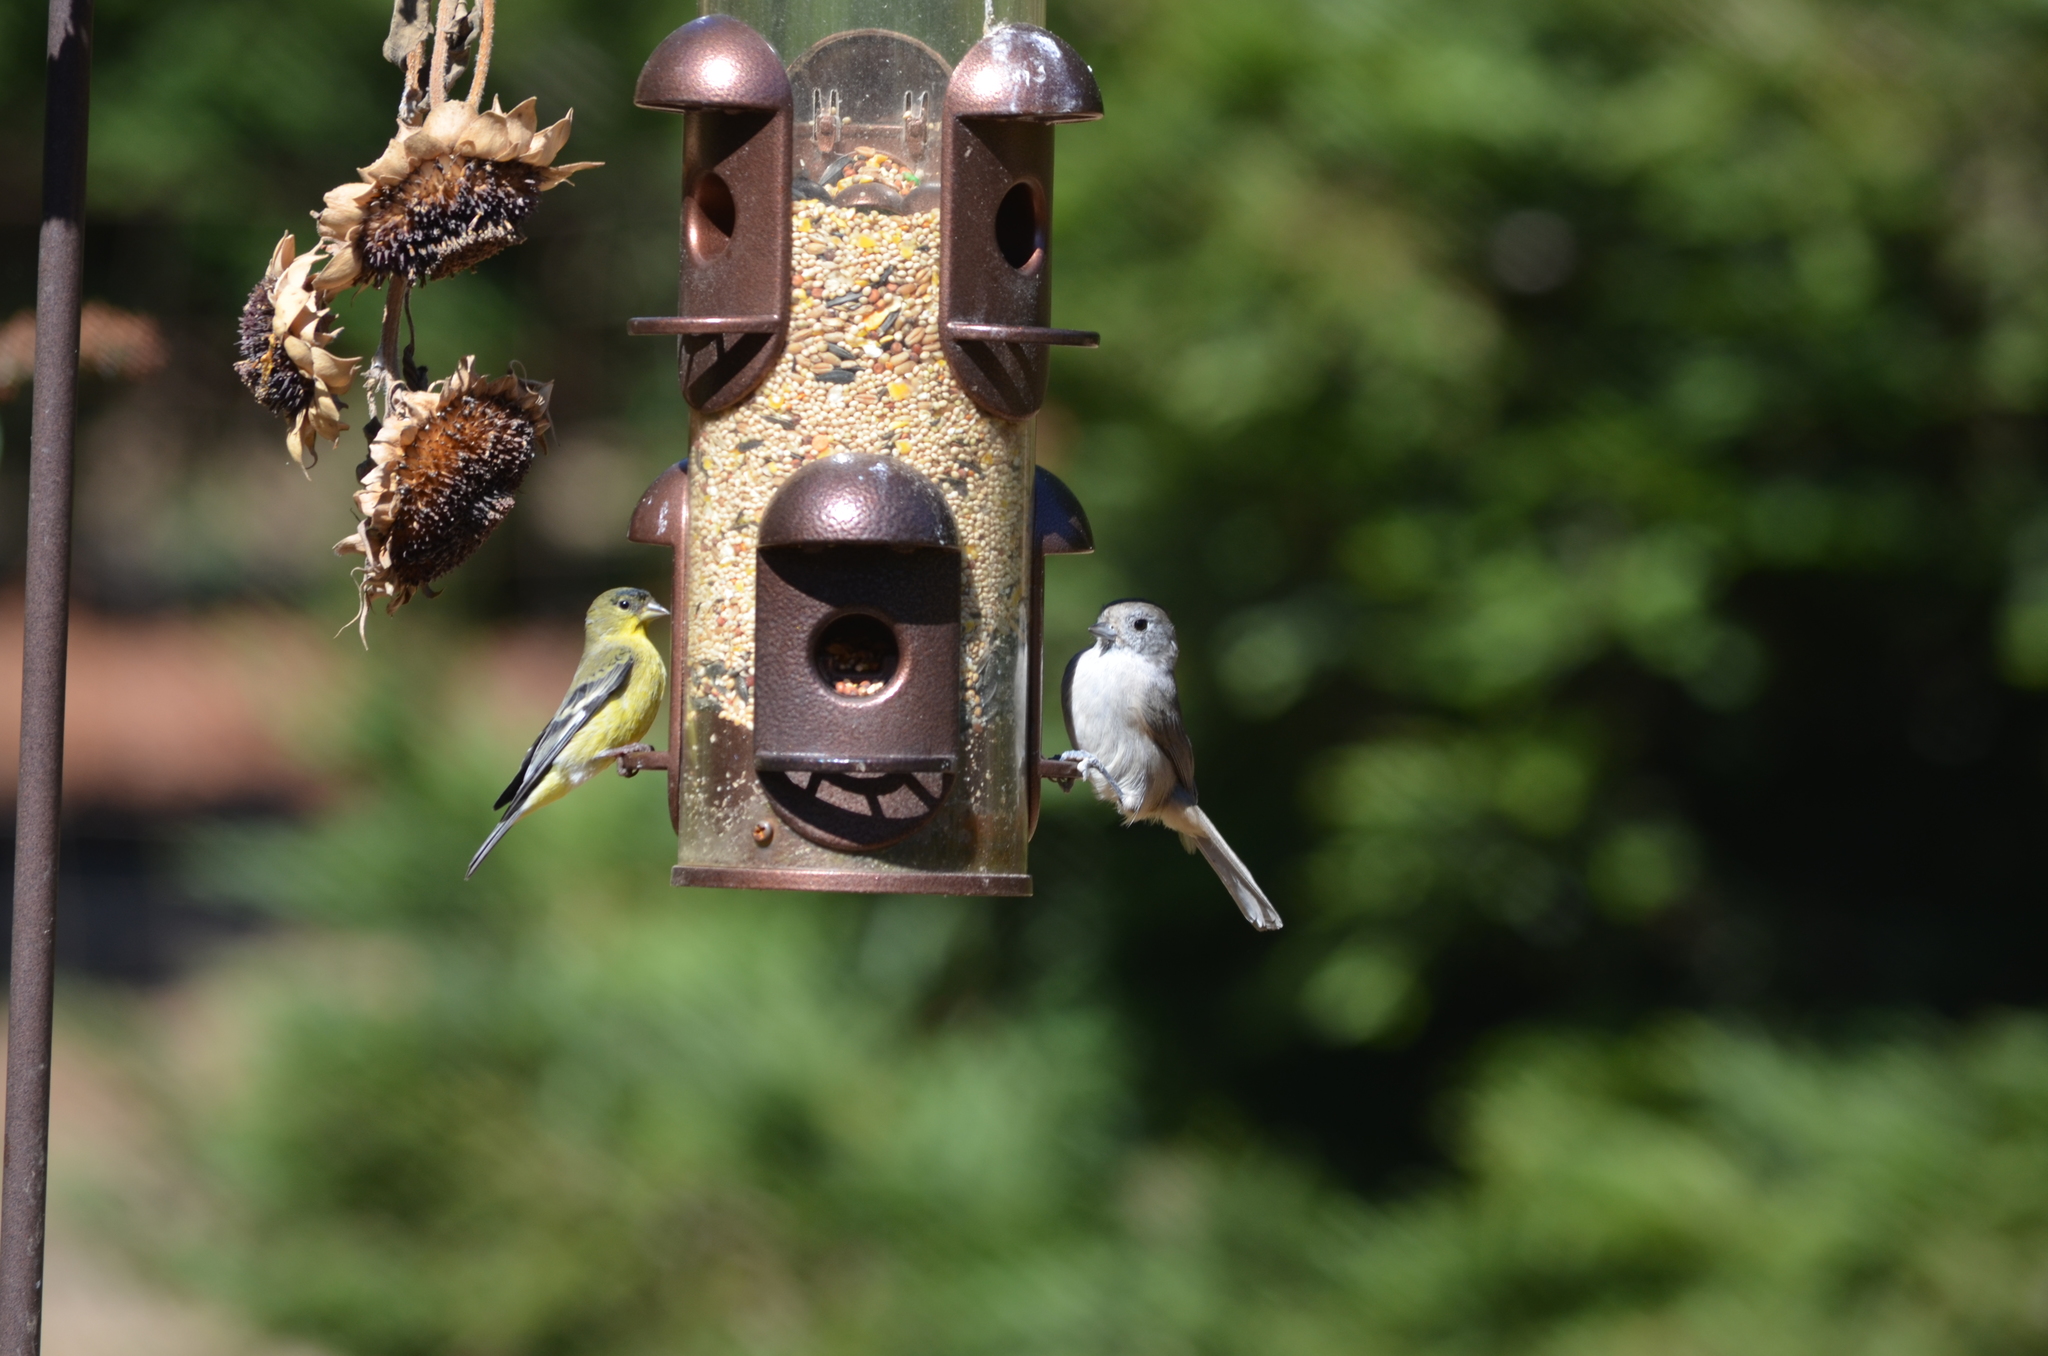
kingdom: Animalia
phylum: Chordata
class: Aves
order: Passeriformes
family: Fringillidae
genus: Spinus
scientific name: Spinus psaltria
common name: Lesser goldfinch
